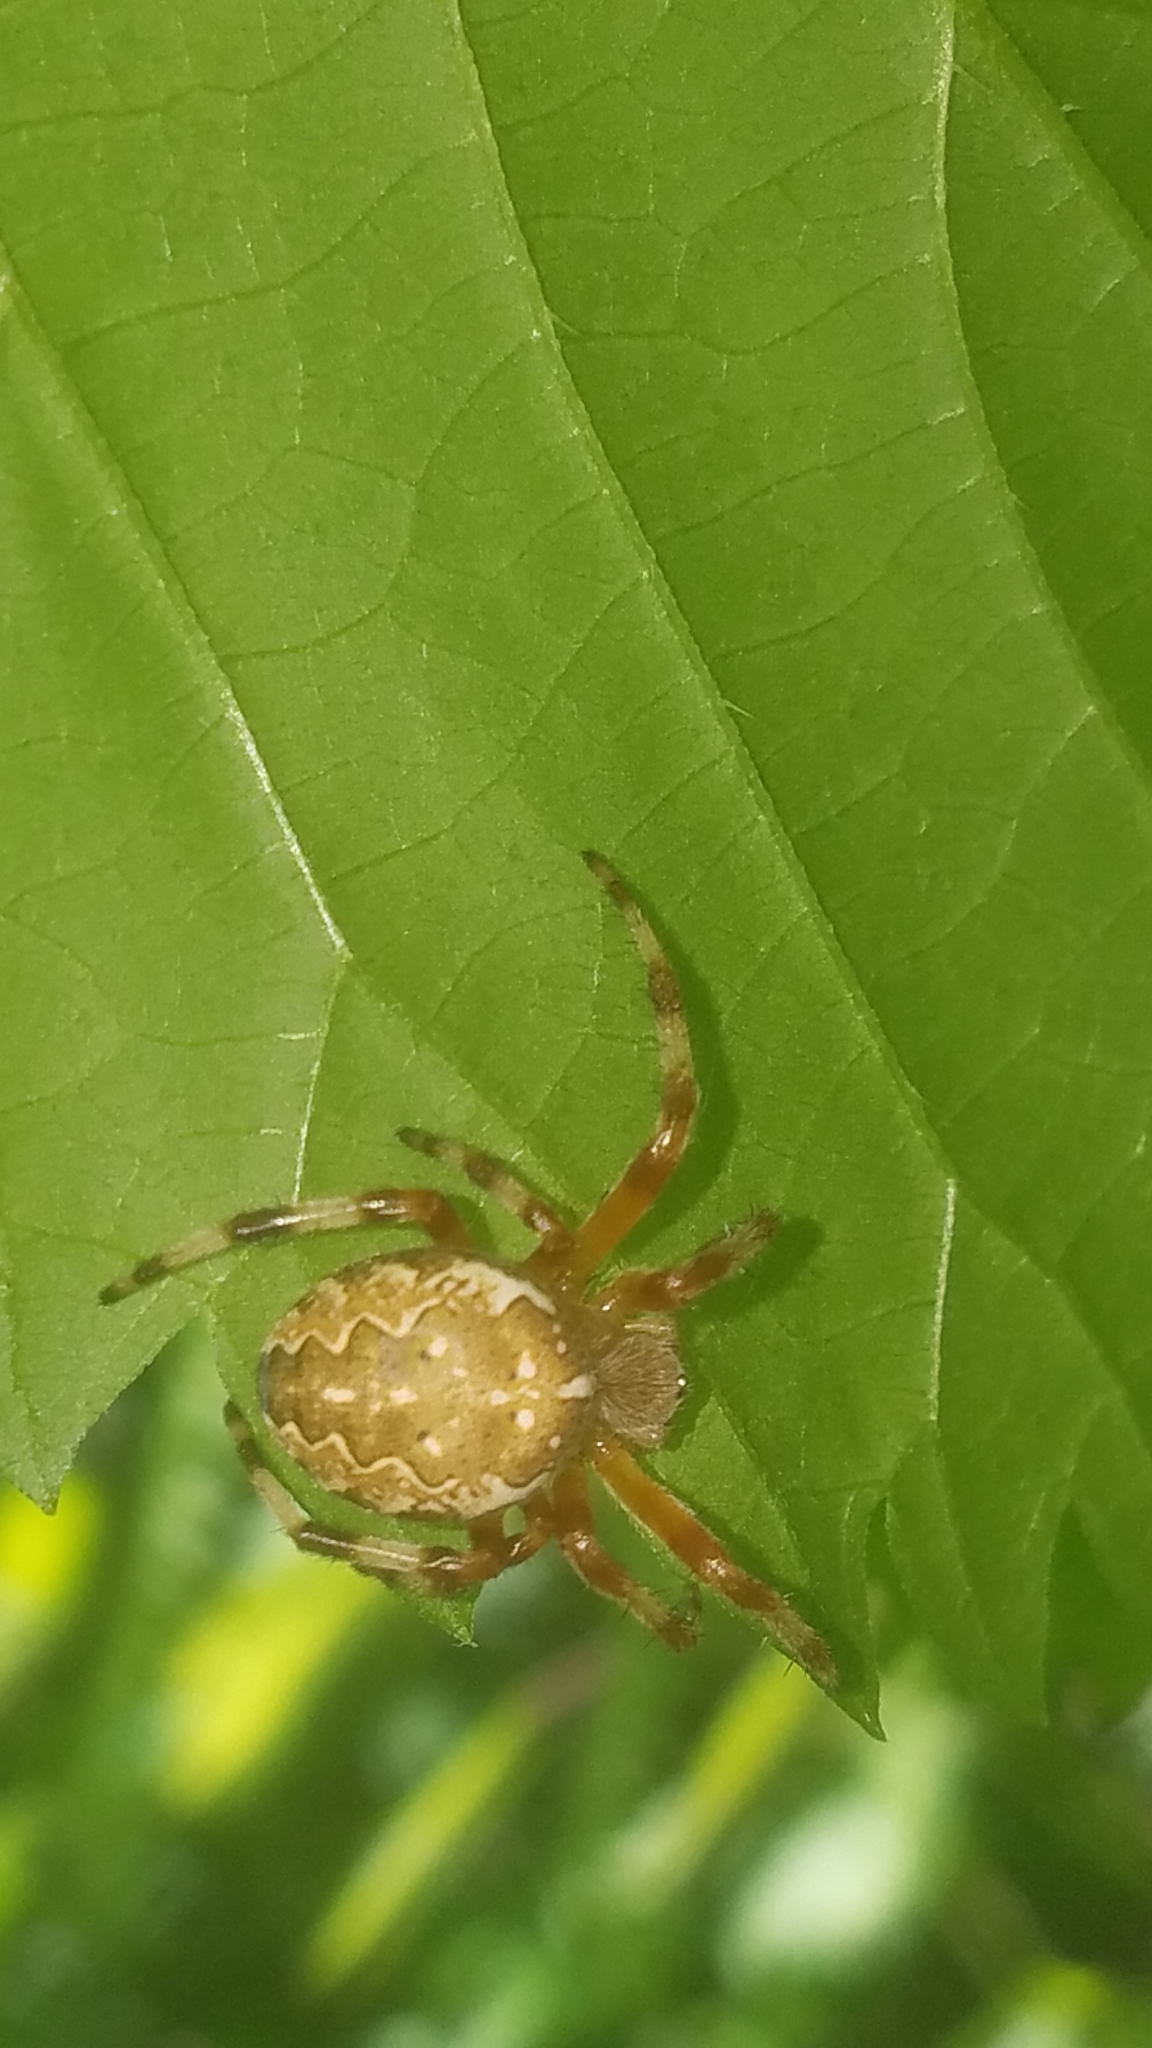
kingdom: Animalia
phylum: Arthropoda
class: Arachnida
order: Araneae
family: Araneidae
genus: Araneus
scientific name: Araneus marmoreus
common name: Marbled orbweaver
